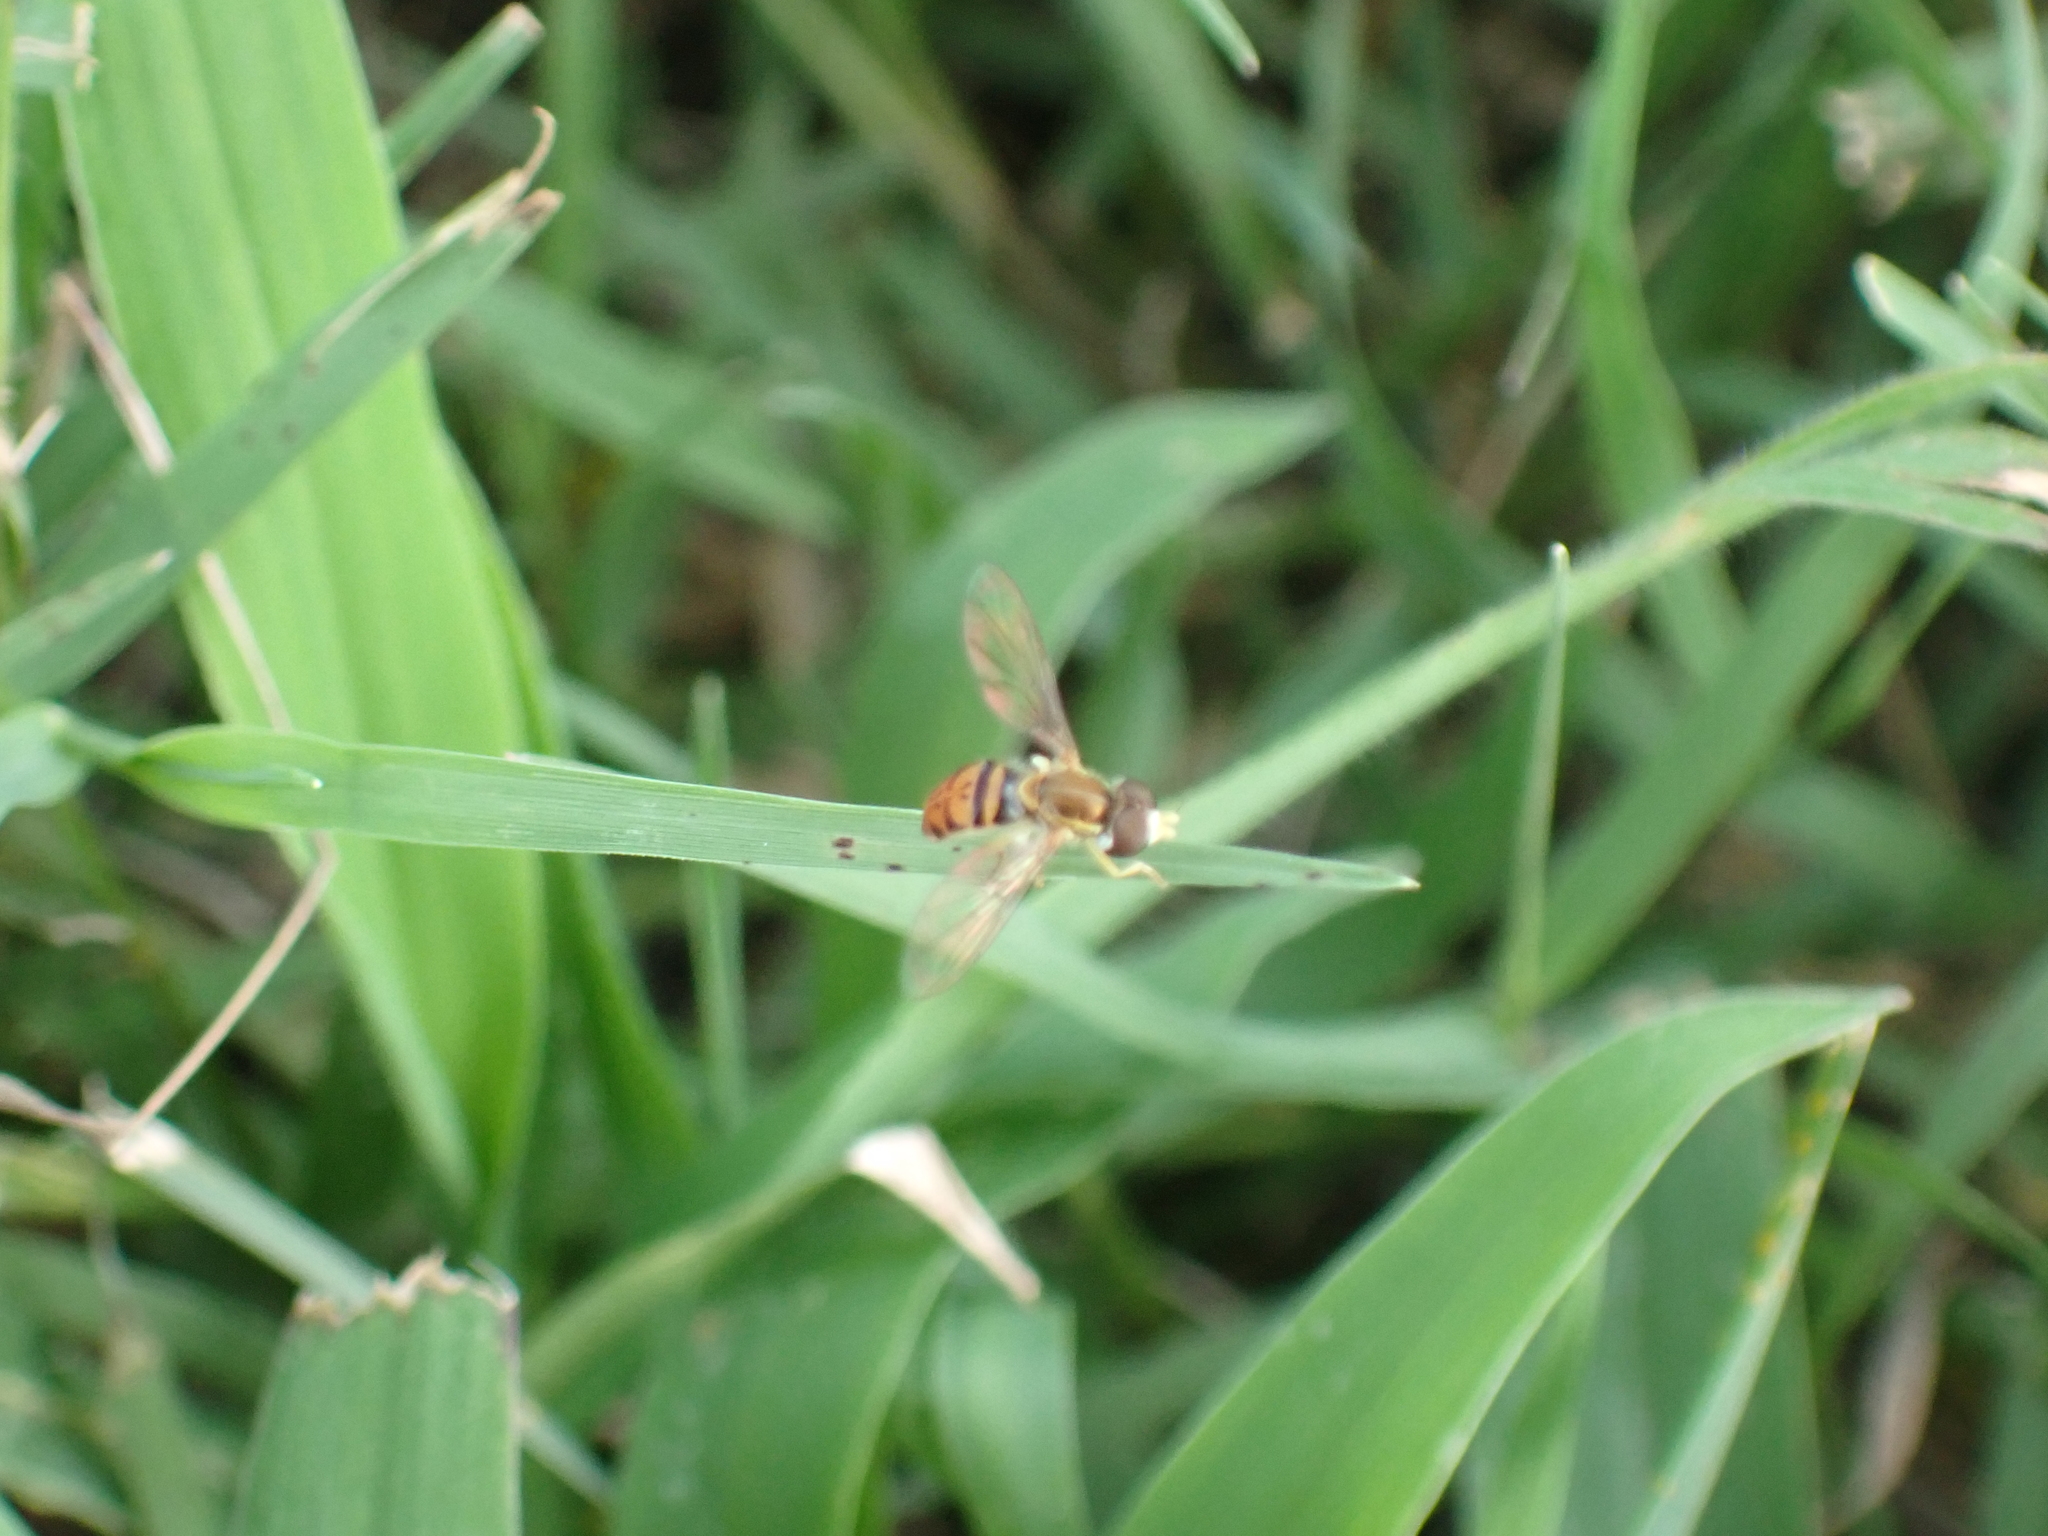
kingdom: Animalia
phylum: Arthropoda
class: Insecta
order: Diptera
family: Syrphidae
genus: Toxomerus
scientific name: Toxomerus marginatus
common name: Syrphid fly
